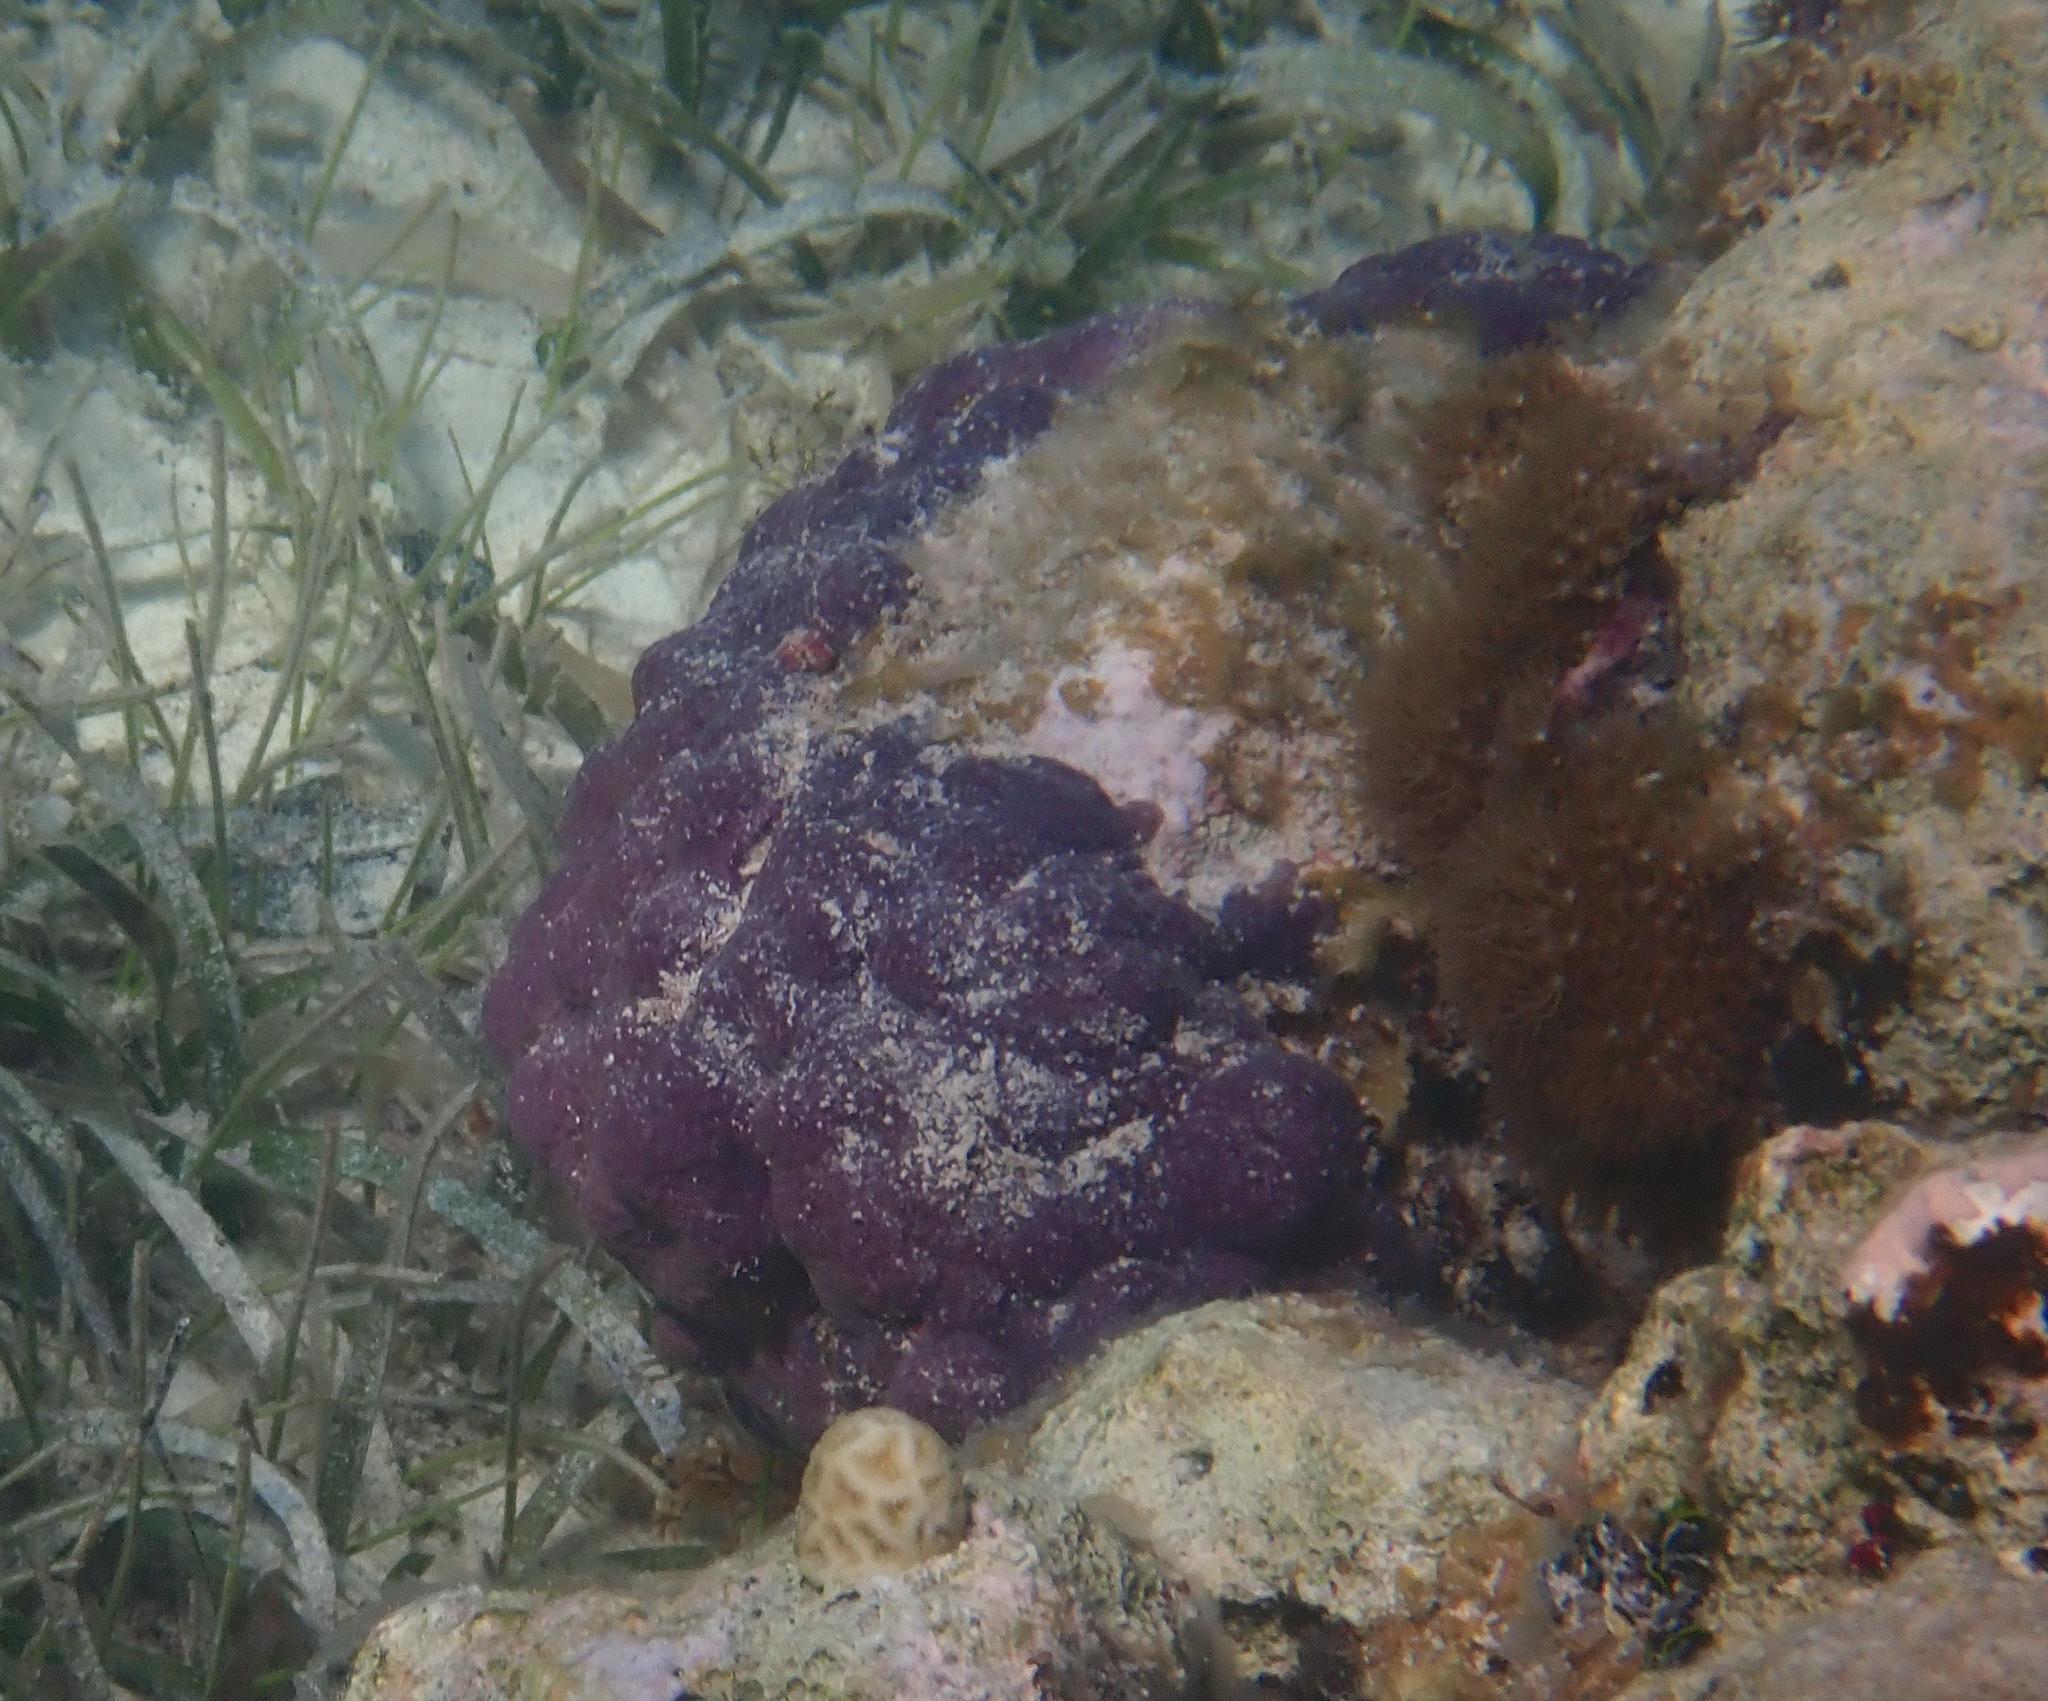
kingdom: Animalia
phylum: Cnidaria
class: Anthozoa
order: Scleralcyonacea
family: Briareidae
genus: Briareum
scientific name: Briareum asbestinum
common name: Corky sea finger
